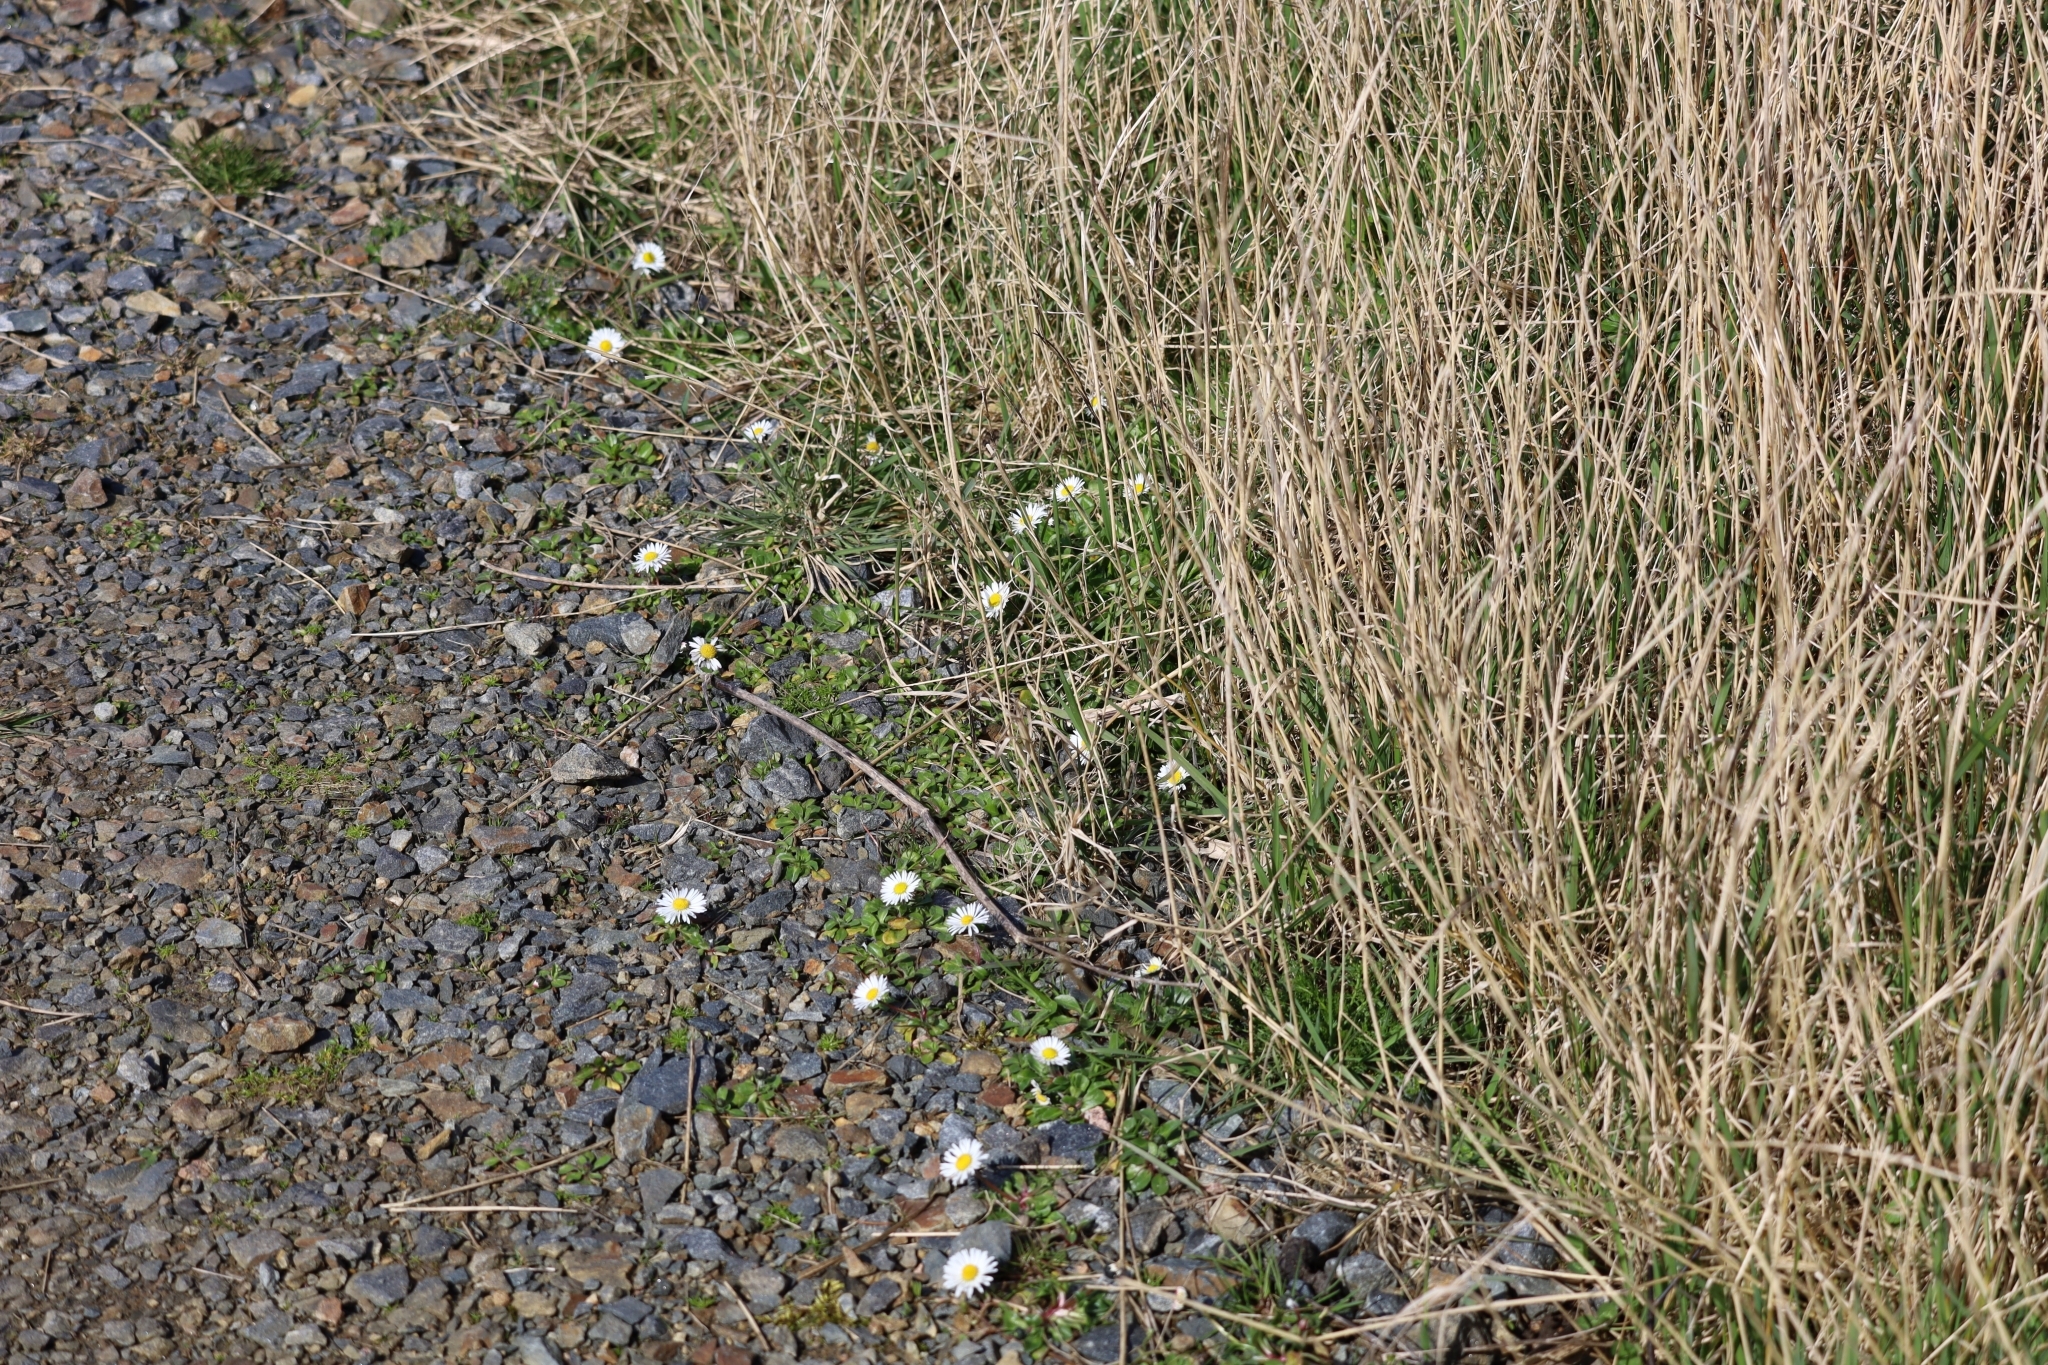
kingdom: Plantae
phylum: Tracheophyta
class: Magnoliopsida
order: Asterales
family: Asteraceae
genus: Bellis
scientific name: Bellis perennis
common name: Lawndaisy
